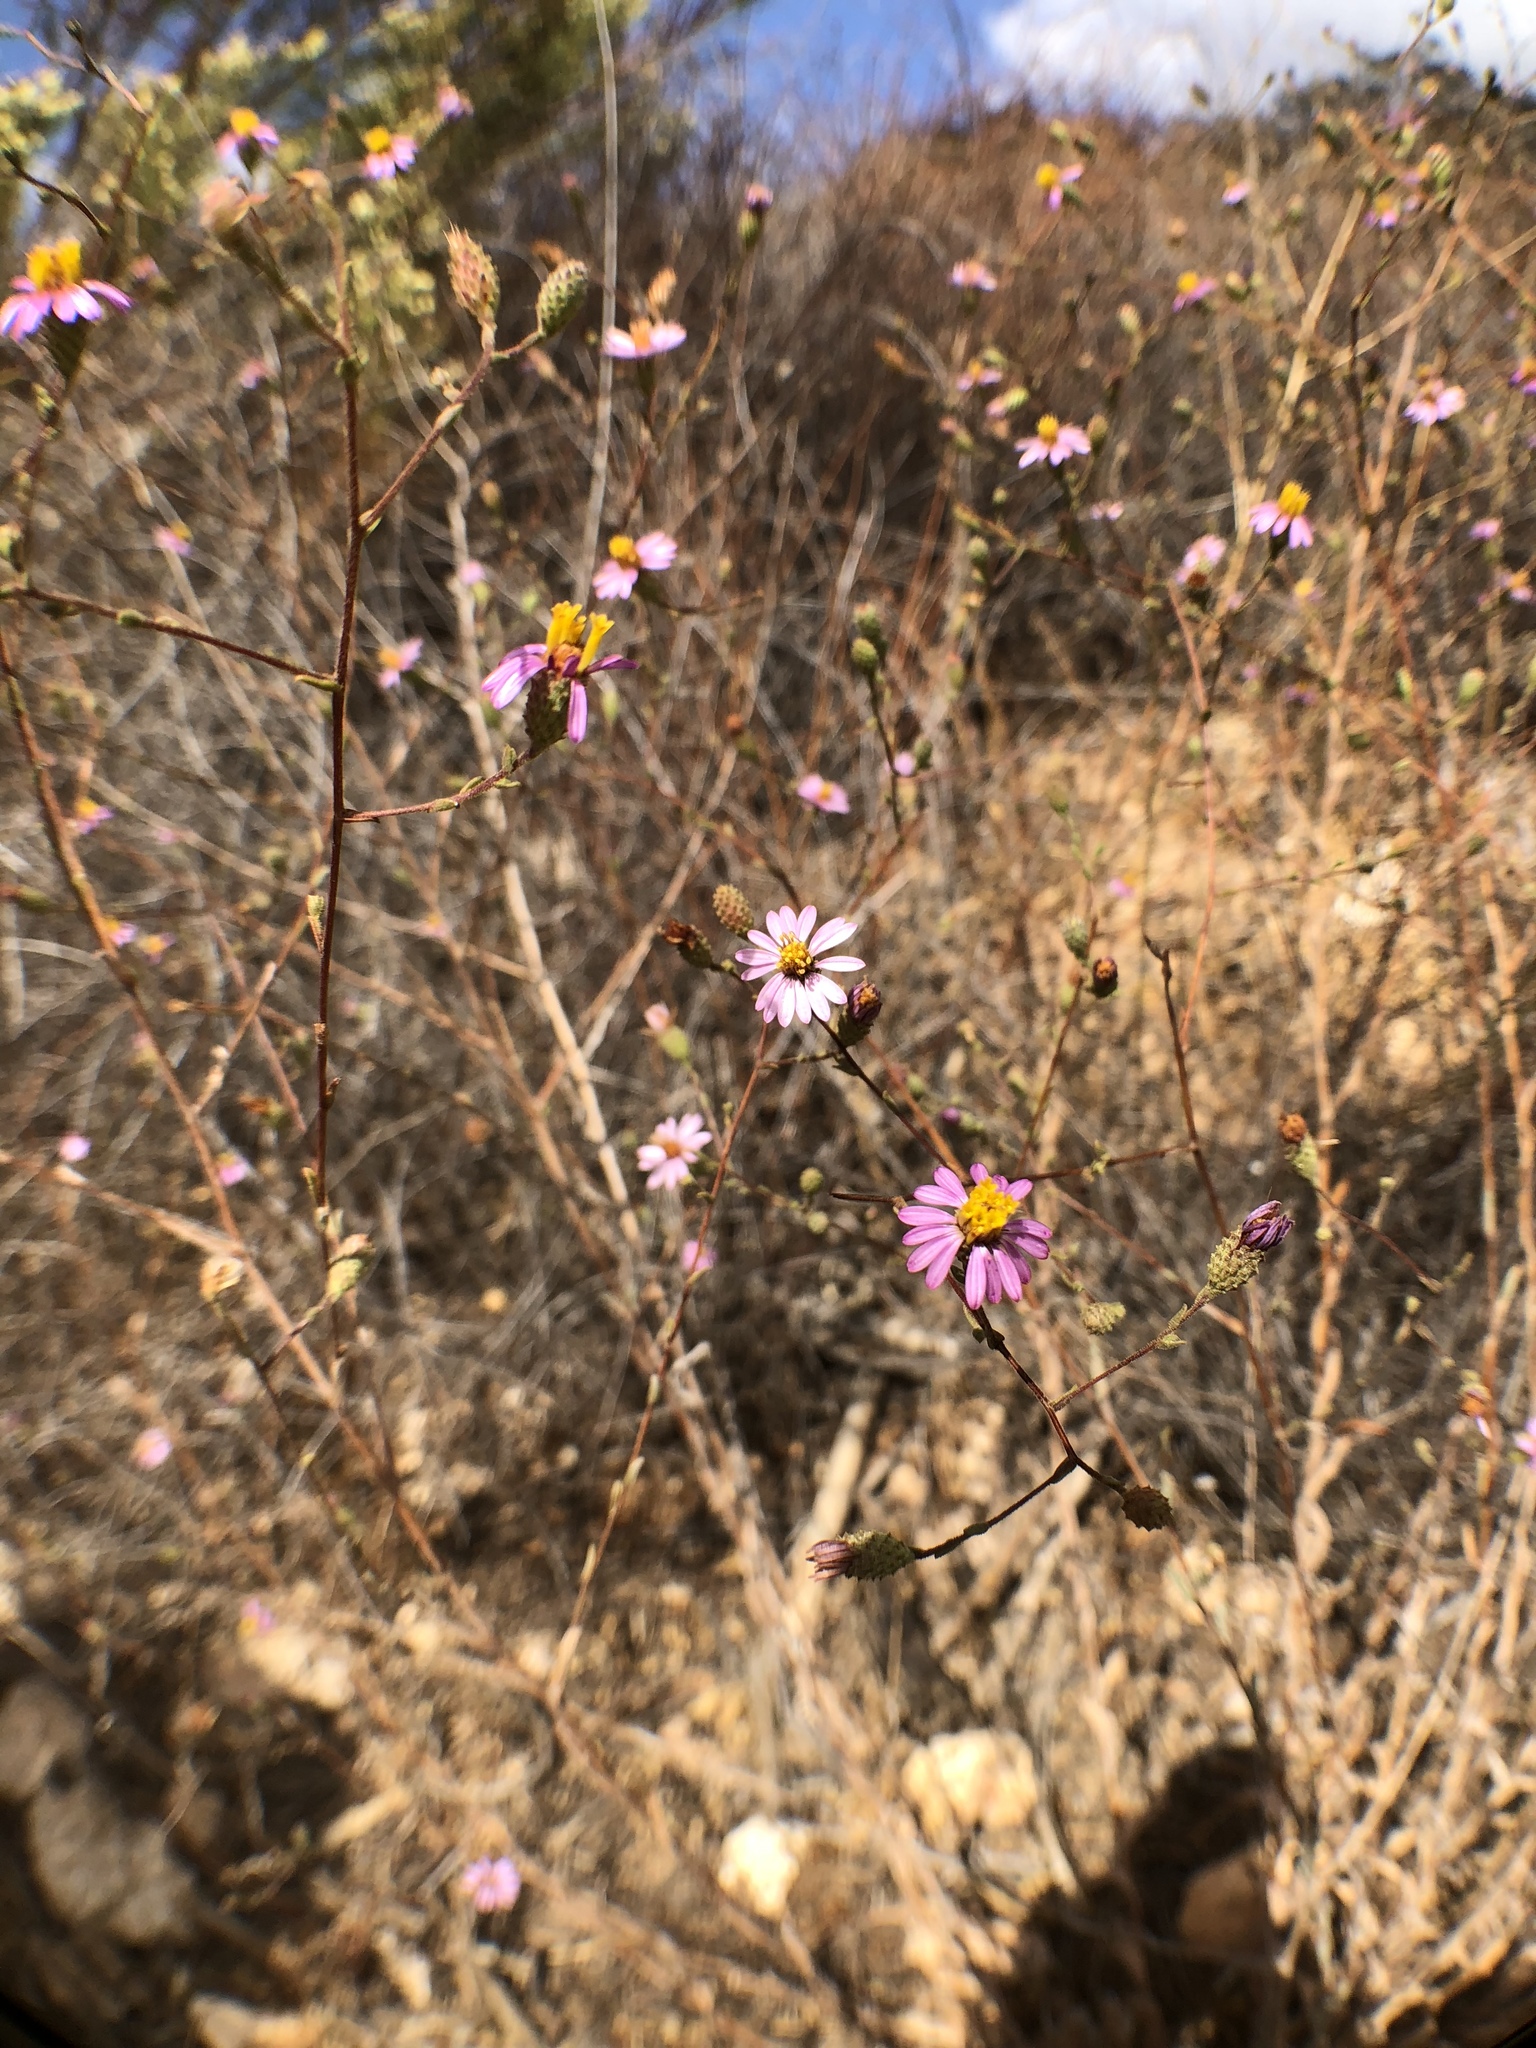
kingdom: Plantae
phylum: Tracheophyta
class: Magnoliopsida
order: Asterales
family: Asteraceae
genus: Corethrogyne
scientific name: Corethrogyne filaginifolia
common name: Sand-aster
